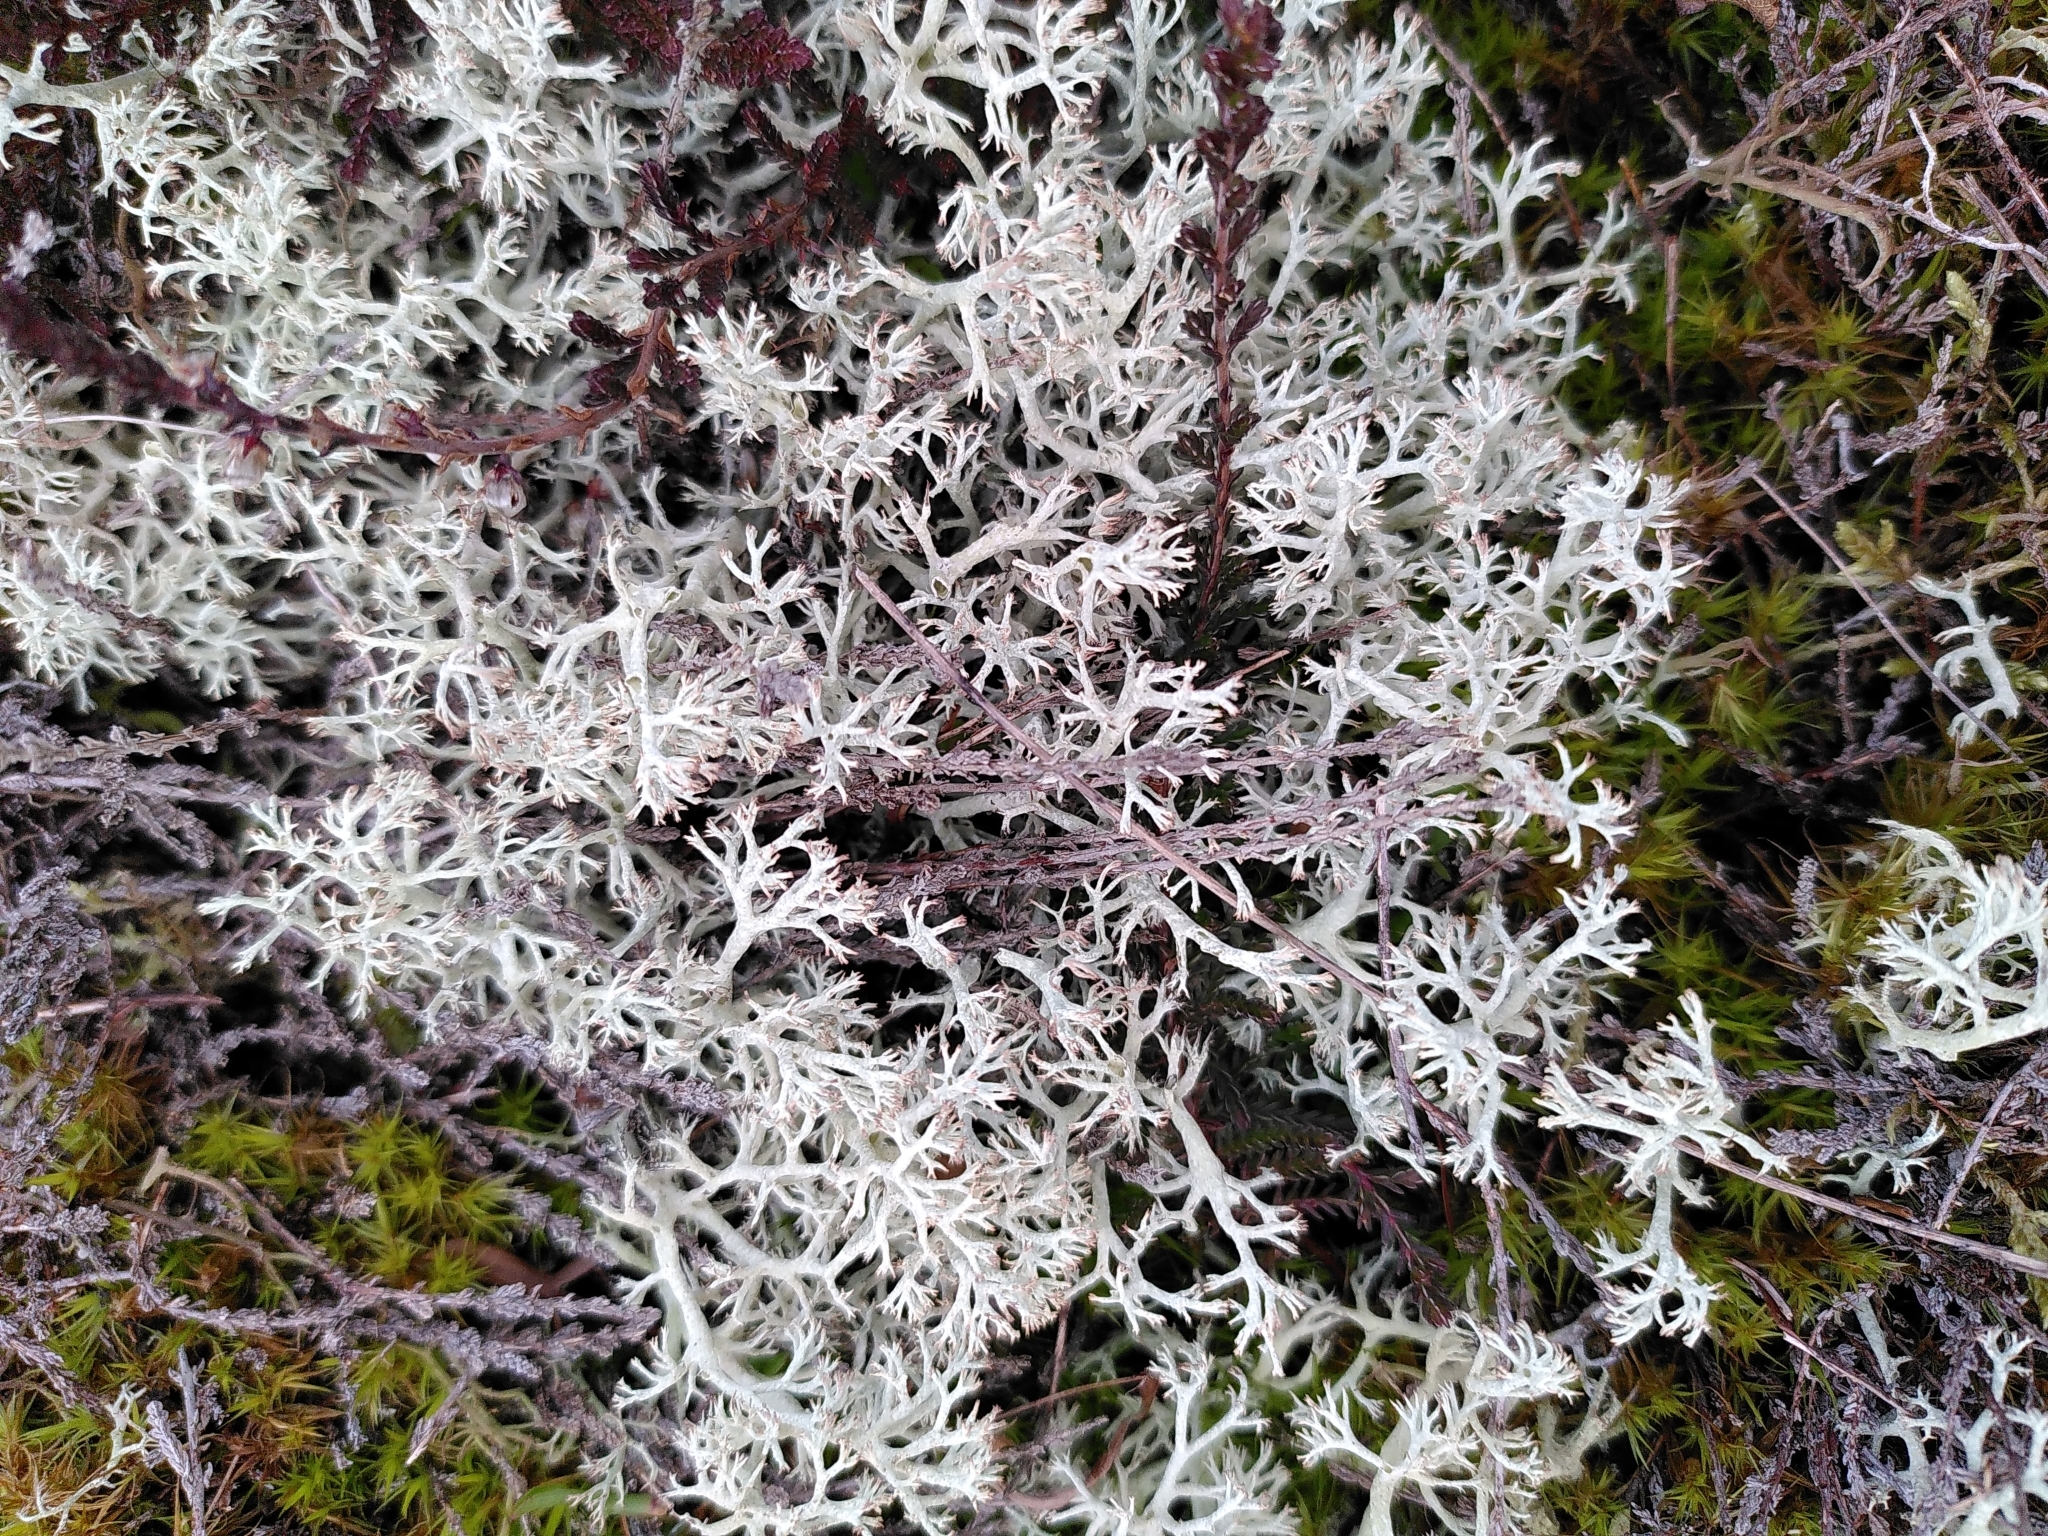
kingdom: Fungi
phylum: Ascomycota
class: Lecanoromycetes
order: Lecanorales
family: Cladoniaceae
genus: Cladonia
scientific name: Cladonia rangiferina
